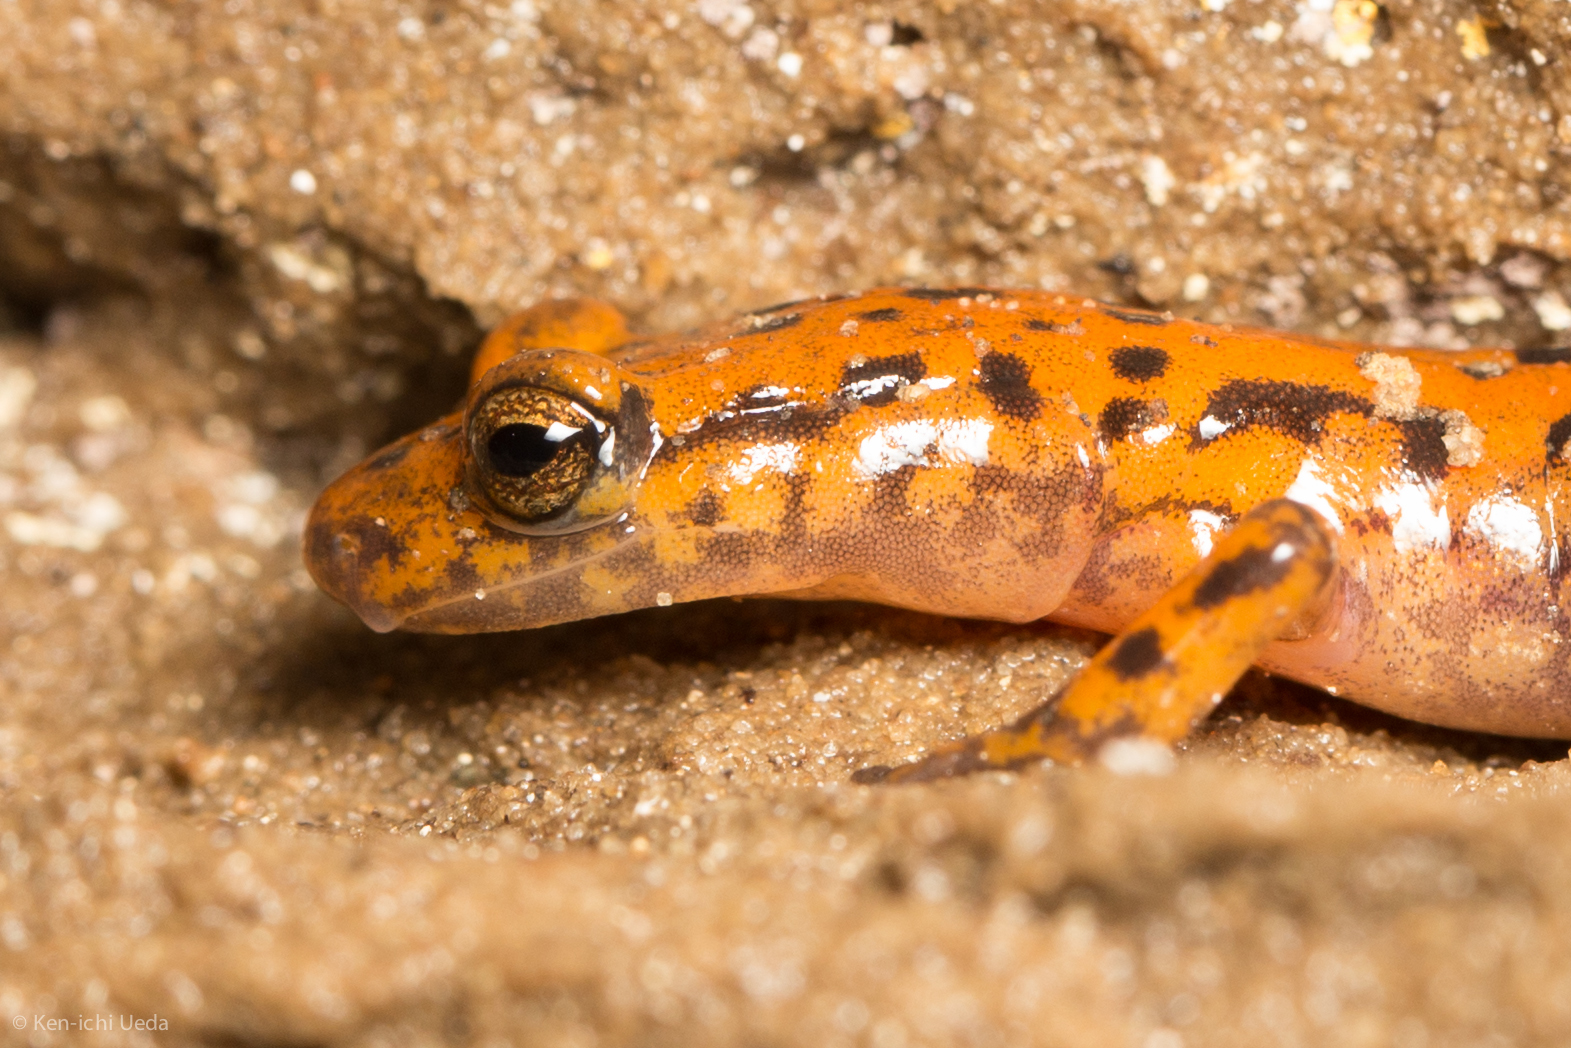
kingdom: Animalia
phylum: Chordata
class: Amphibia
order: Caudata
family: Plethodontidae
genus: Eurycea
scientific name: Eurycea lucifuga
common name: Cave salamander
